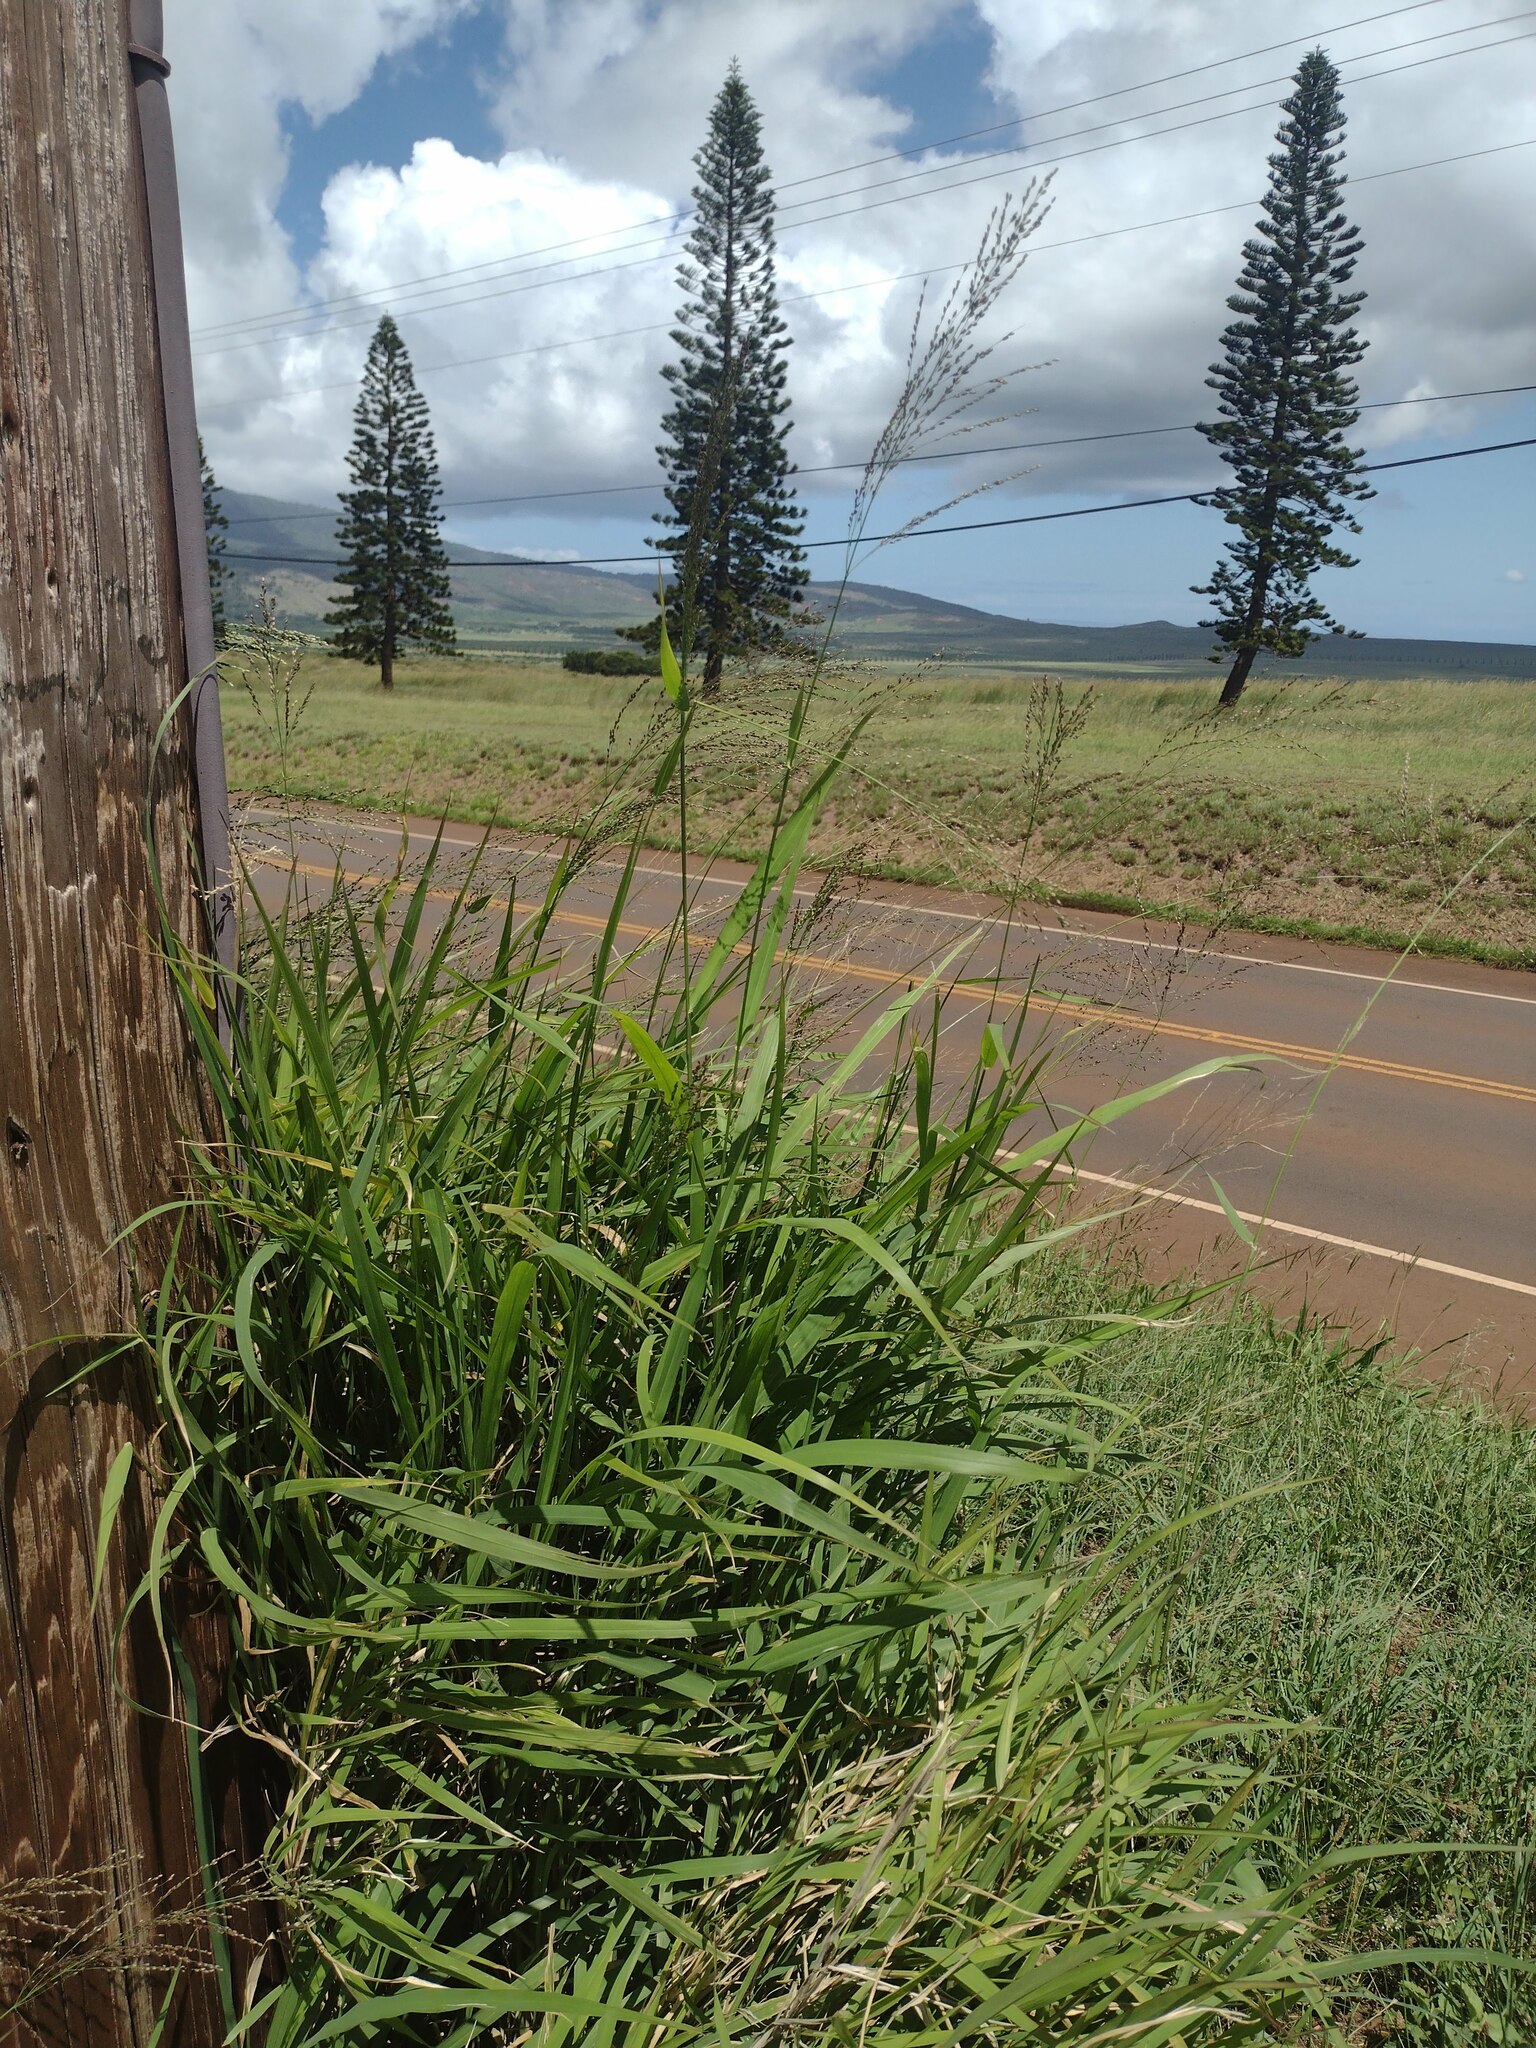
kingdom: Plantae
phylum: Tracheophyta
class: Liliopsida
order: Poales
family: Poaceae
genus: Megathyrsus
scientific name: Megathyrsus maximus
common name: Guineagrass
